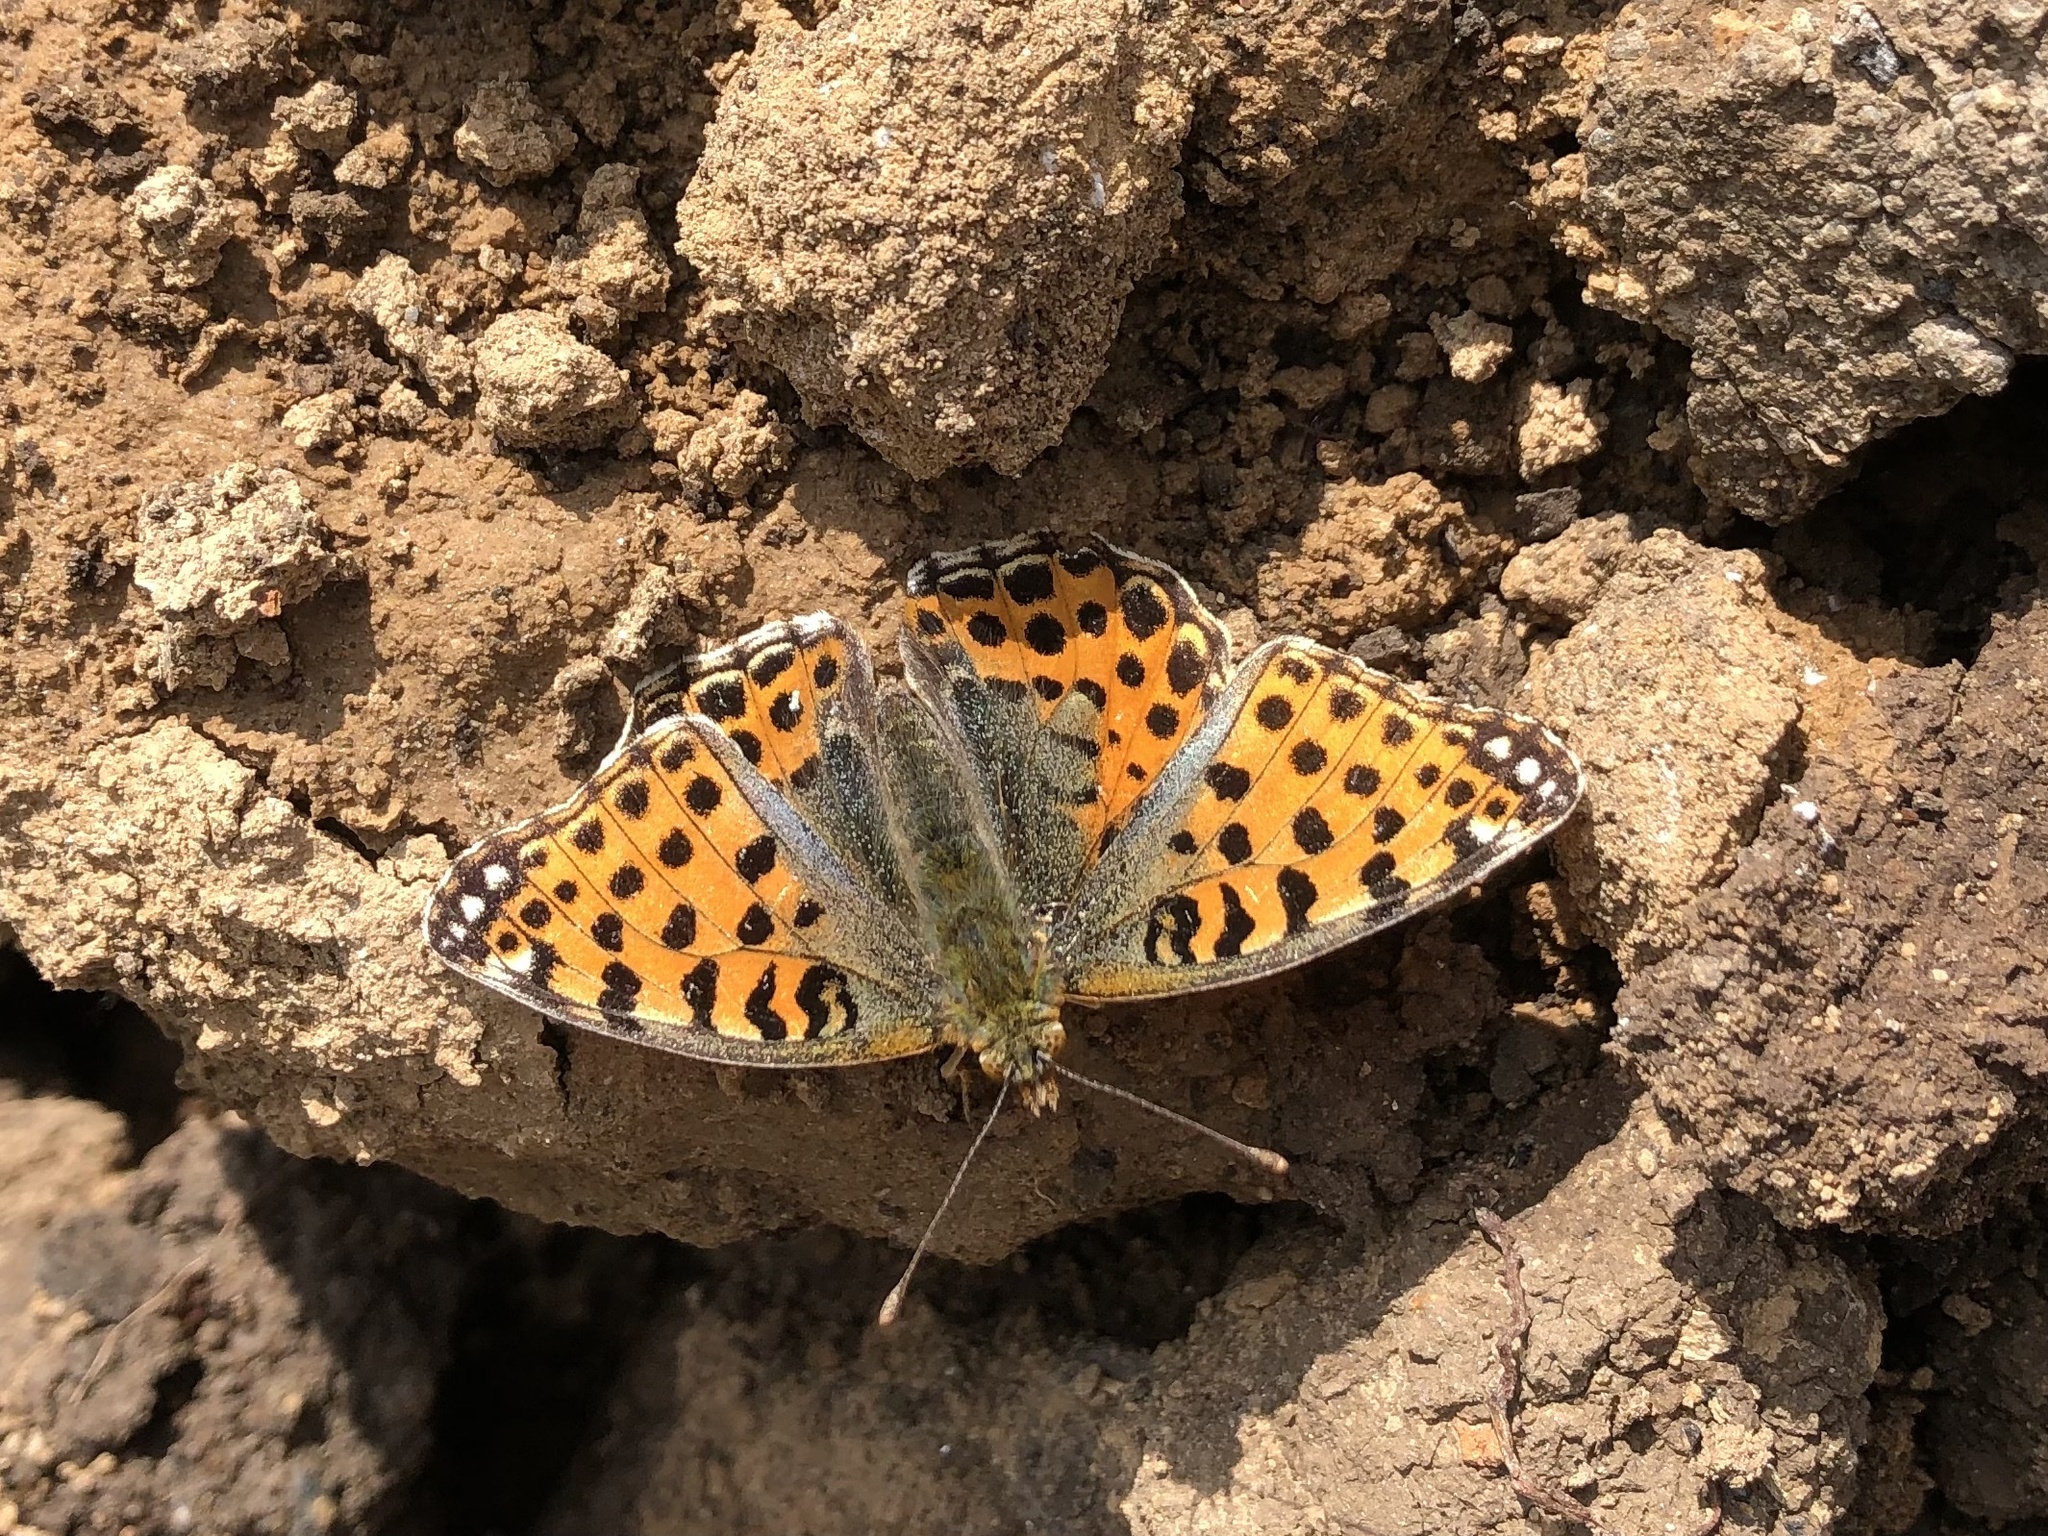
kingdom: Animalia
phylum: Arthropoda
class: Insecta
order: Lepidoptera
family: Nymphalidae
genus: Issoria
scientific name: Issoria lathonia
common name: Queen of spain fritillary
